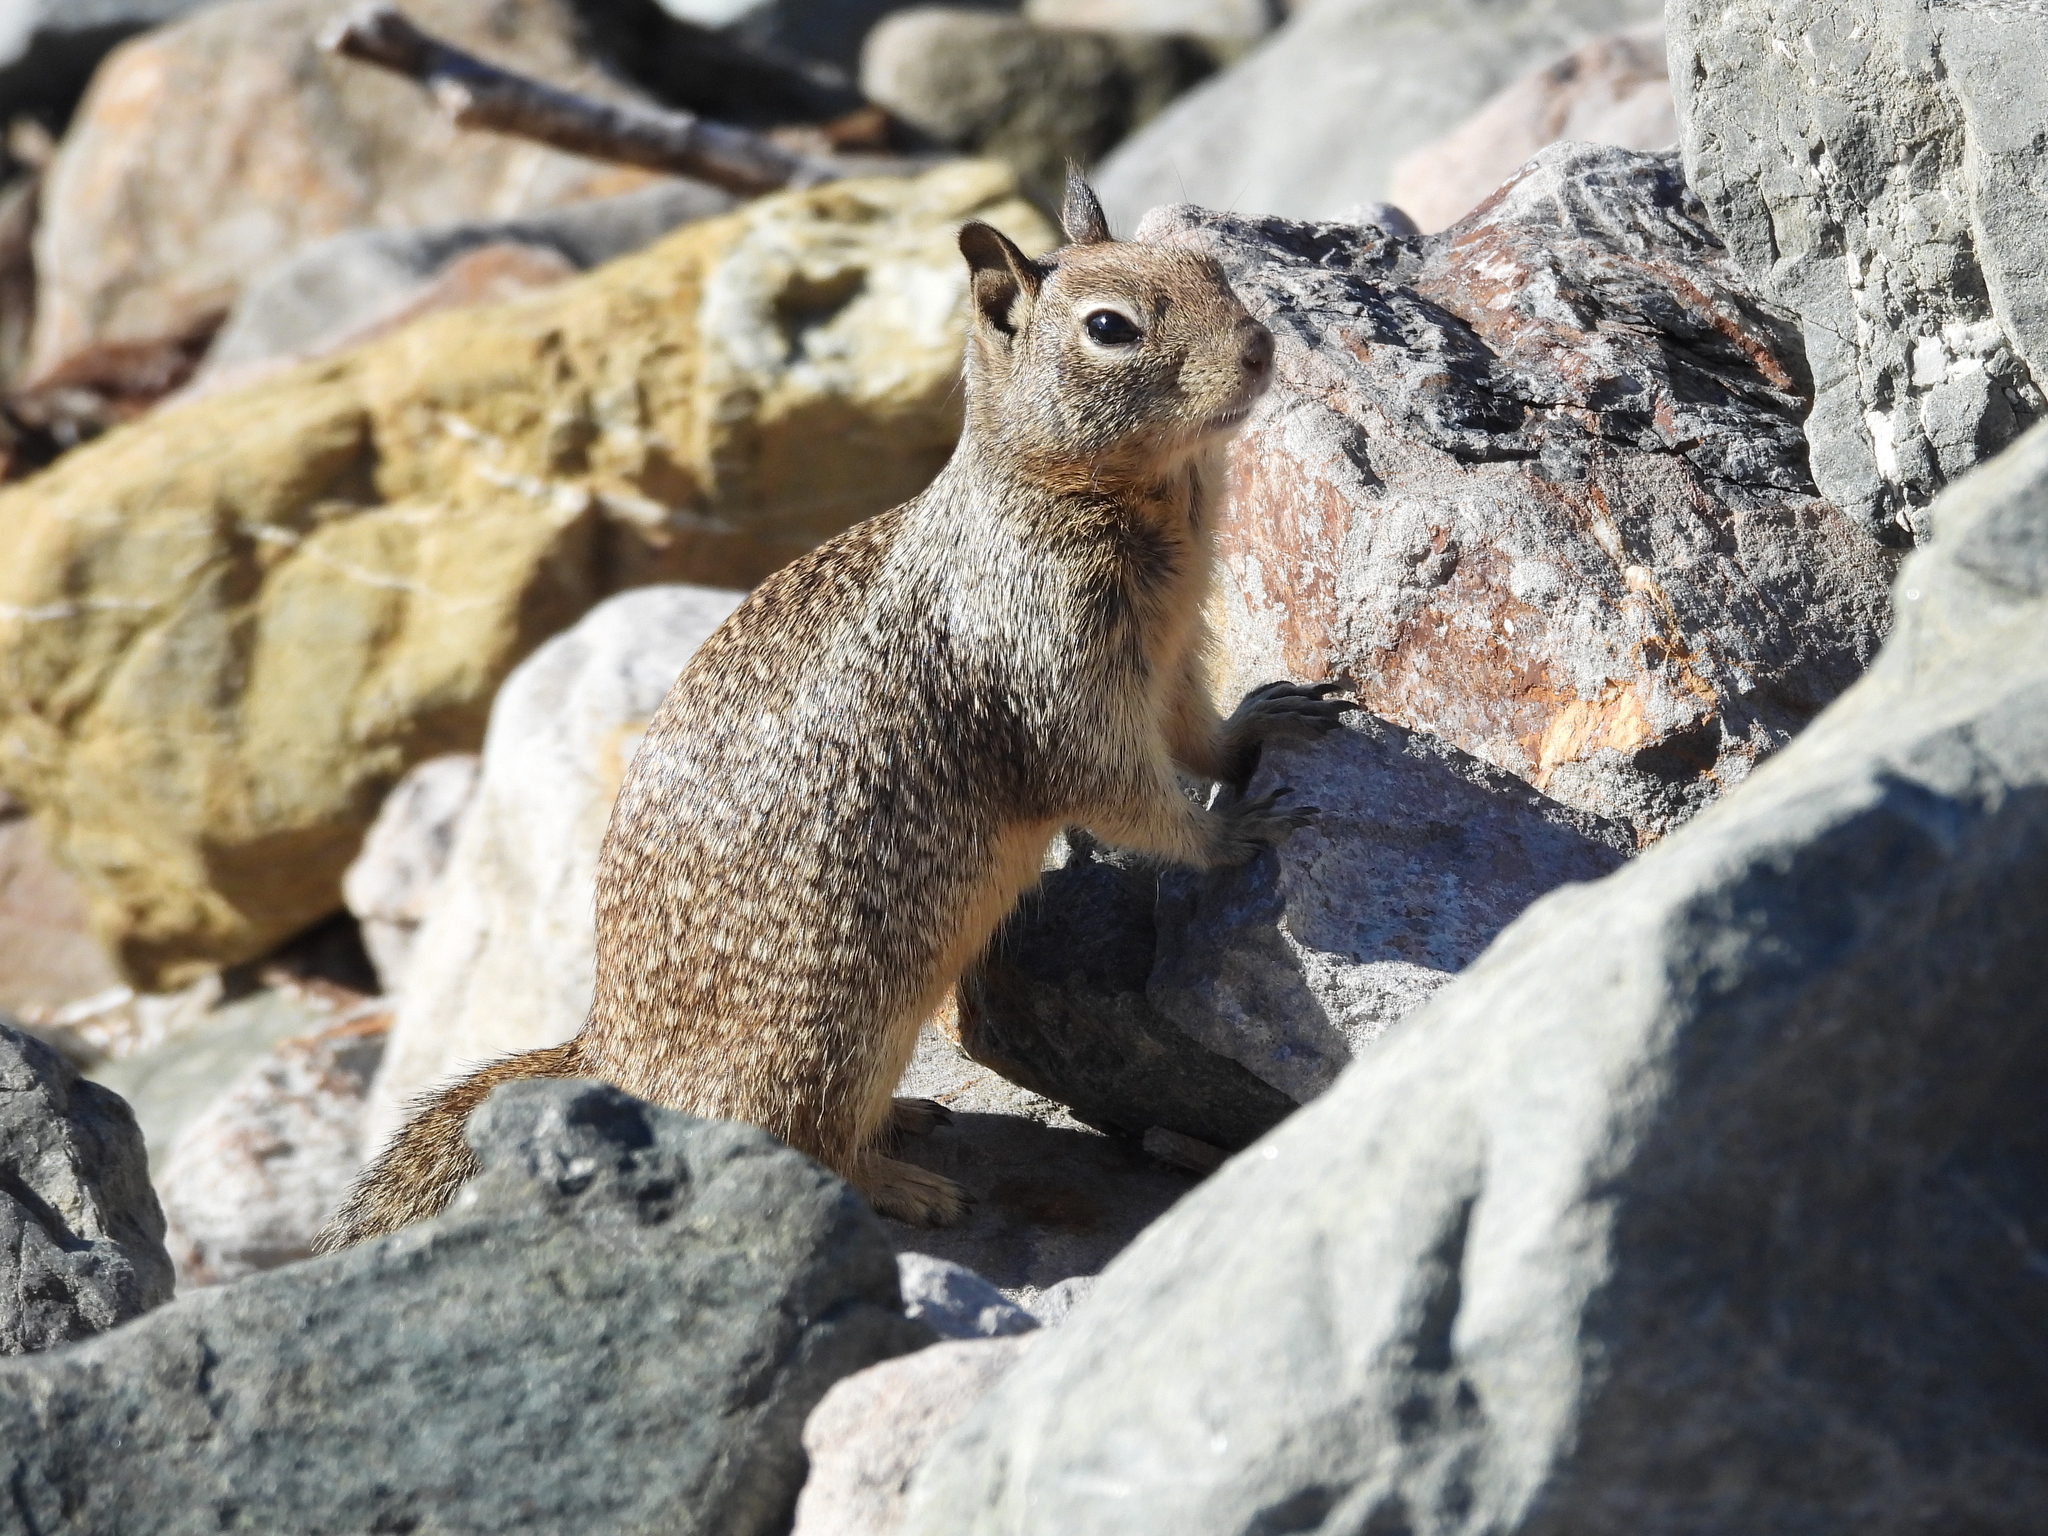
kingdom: Animalia
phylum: Chordata
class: Mammalia
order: Rodentia
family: Sciuridae
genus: Otospermophilus
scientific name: Otospermophilus beecheyi
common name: California ground squirrel
